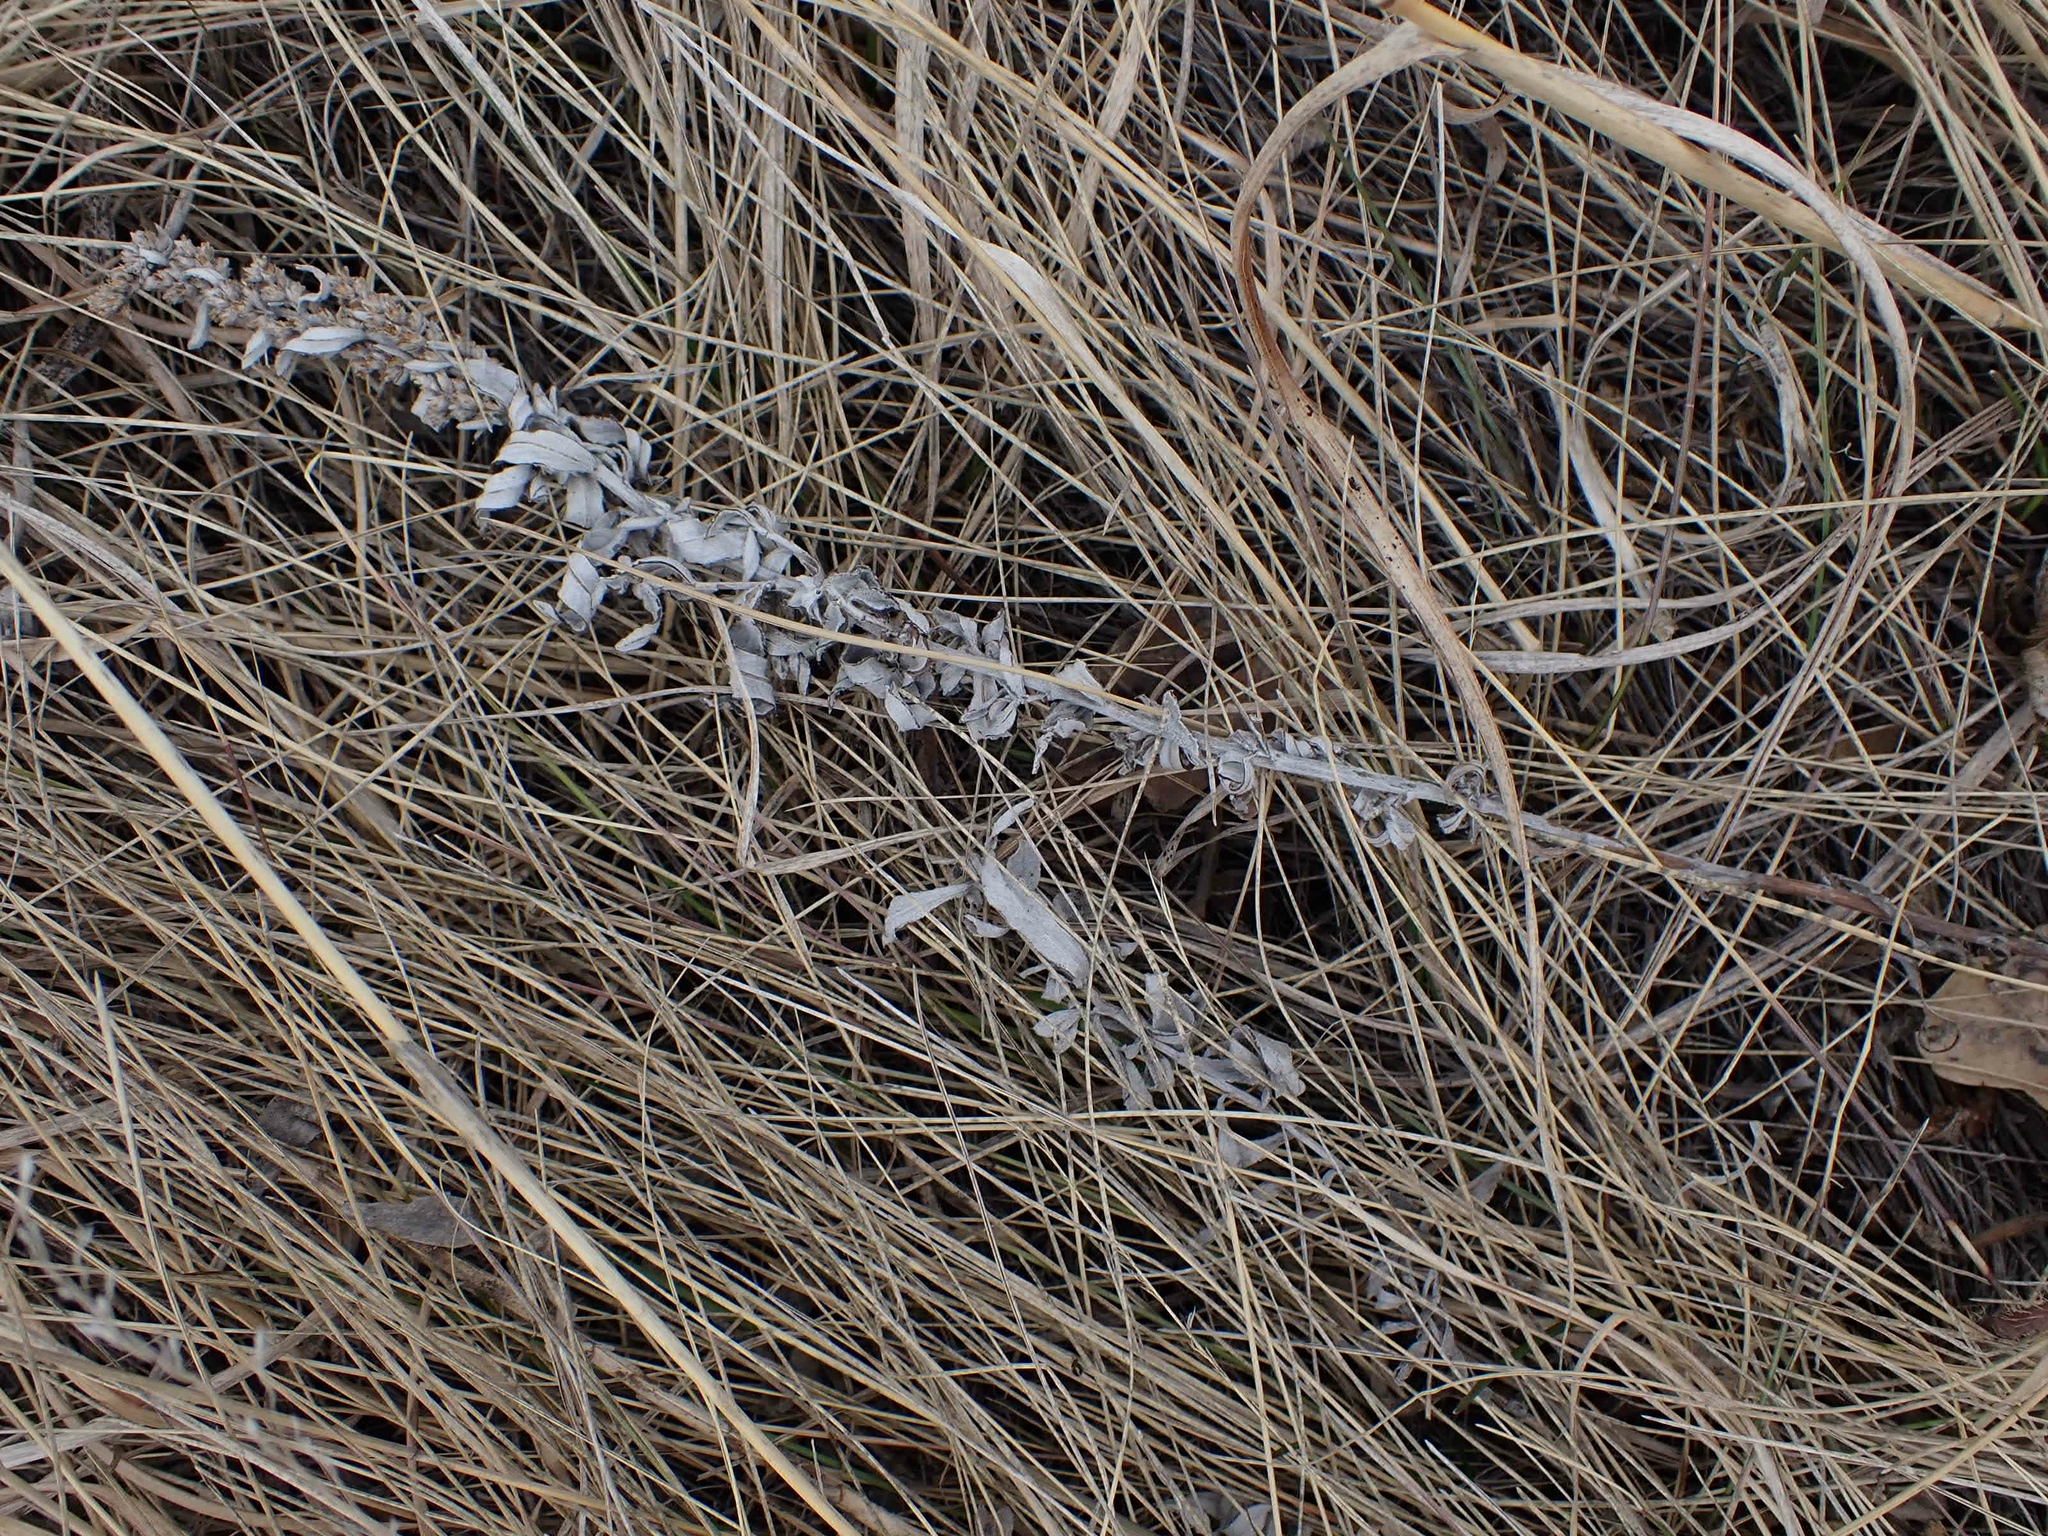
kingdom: Plantae
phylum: Tracheophyta
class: Magnoliopsida
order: Asterales
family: Asteraceae
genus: Artemisia
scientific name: Artemisia ludoviciana
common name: Western mugwort
